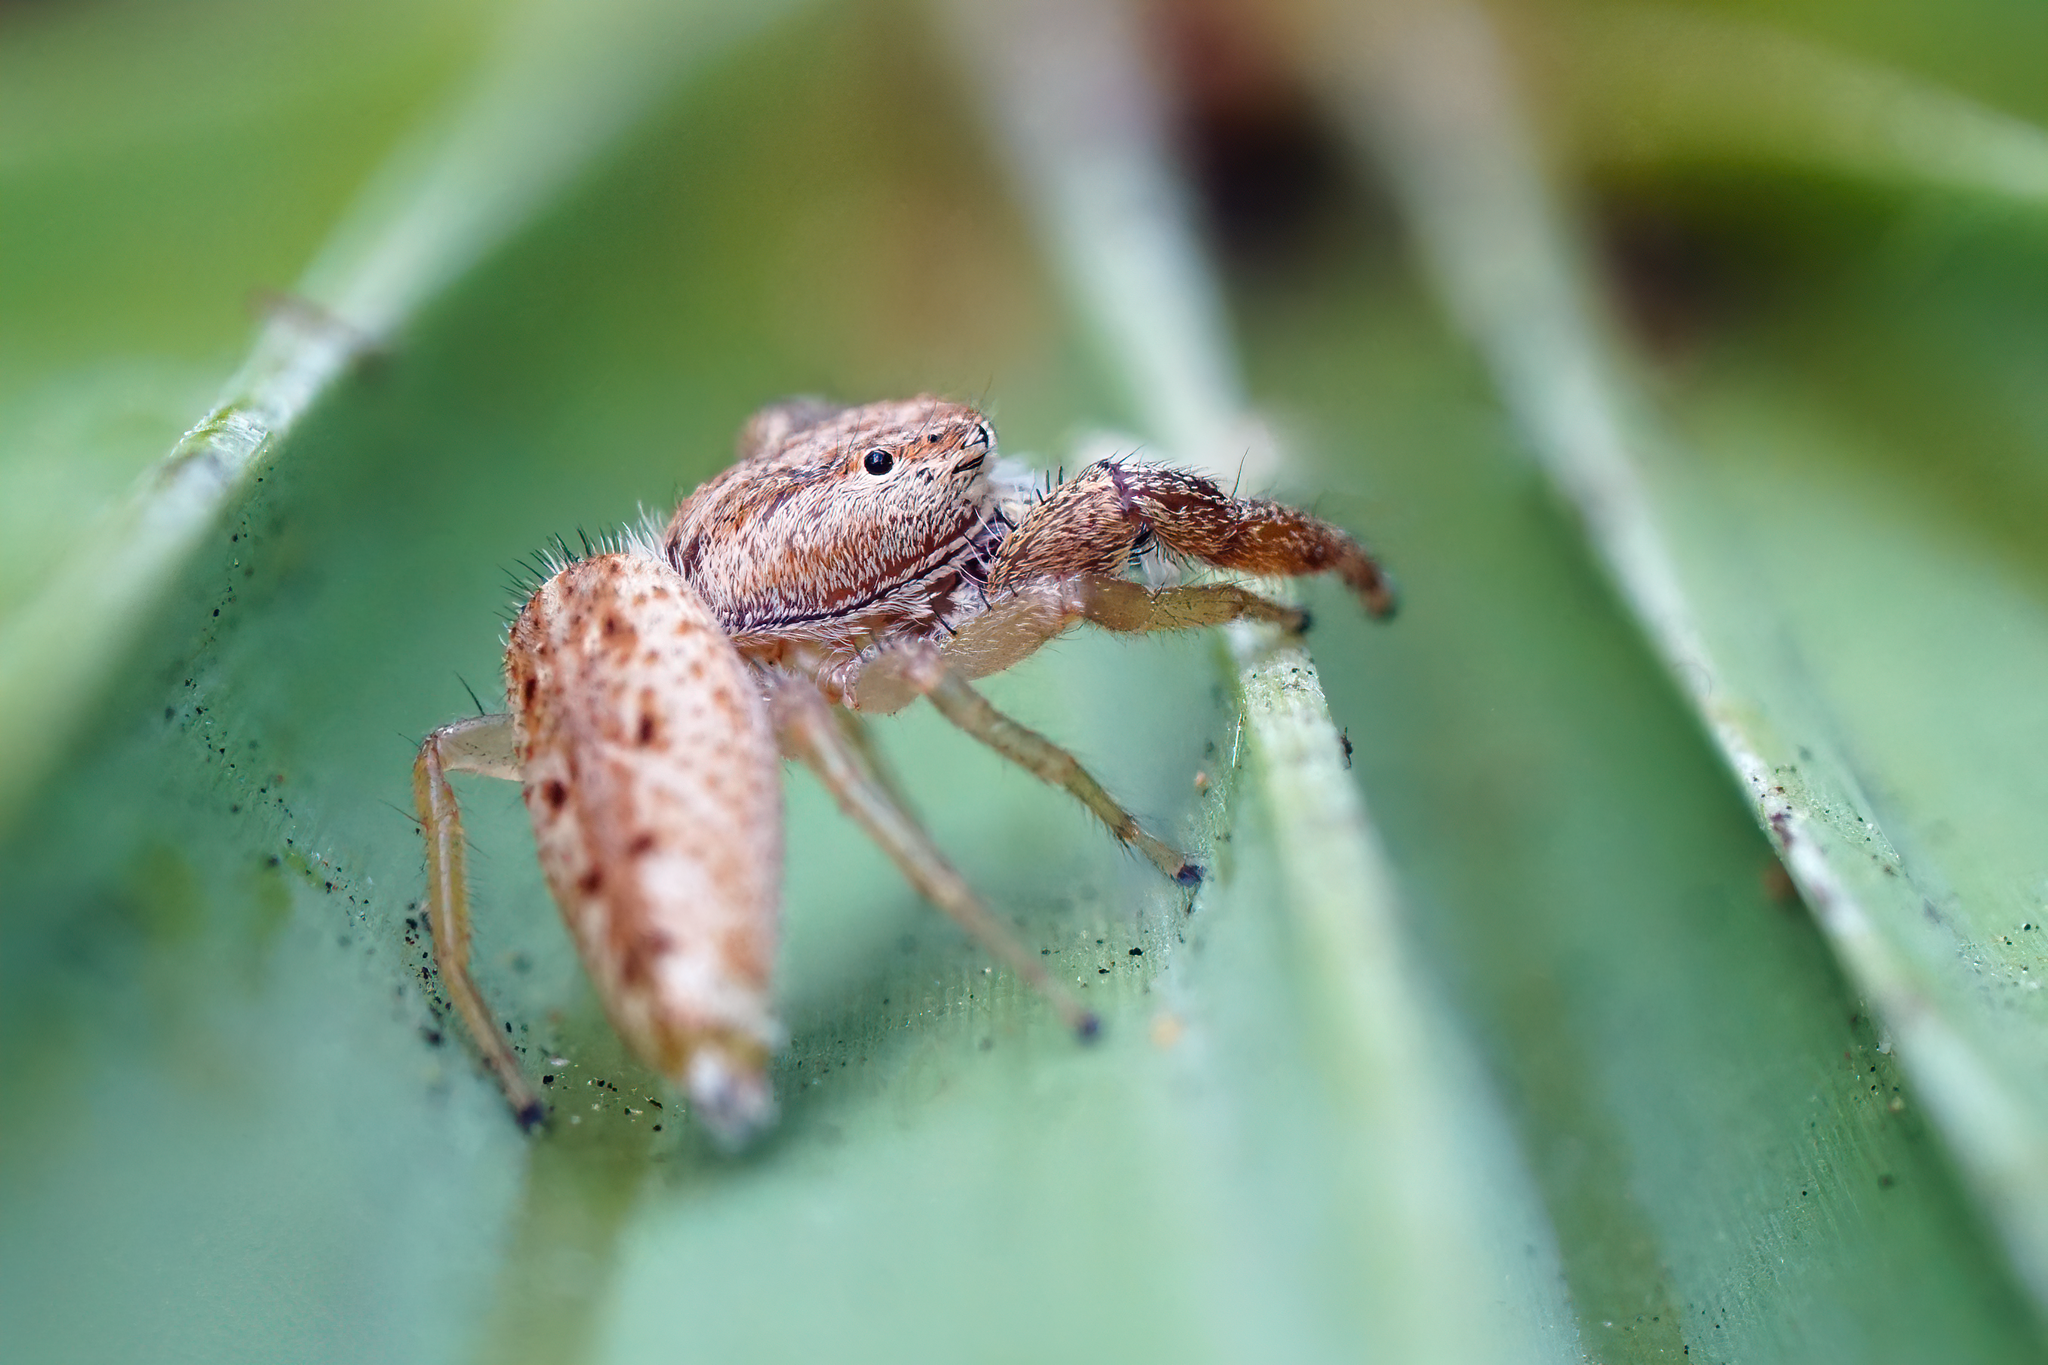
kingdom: Animalia
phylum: Arthropoda
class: Arachnida
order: Araneae
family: Salticidae
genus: Hentzia
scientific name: Hentzia chekika
